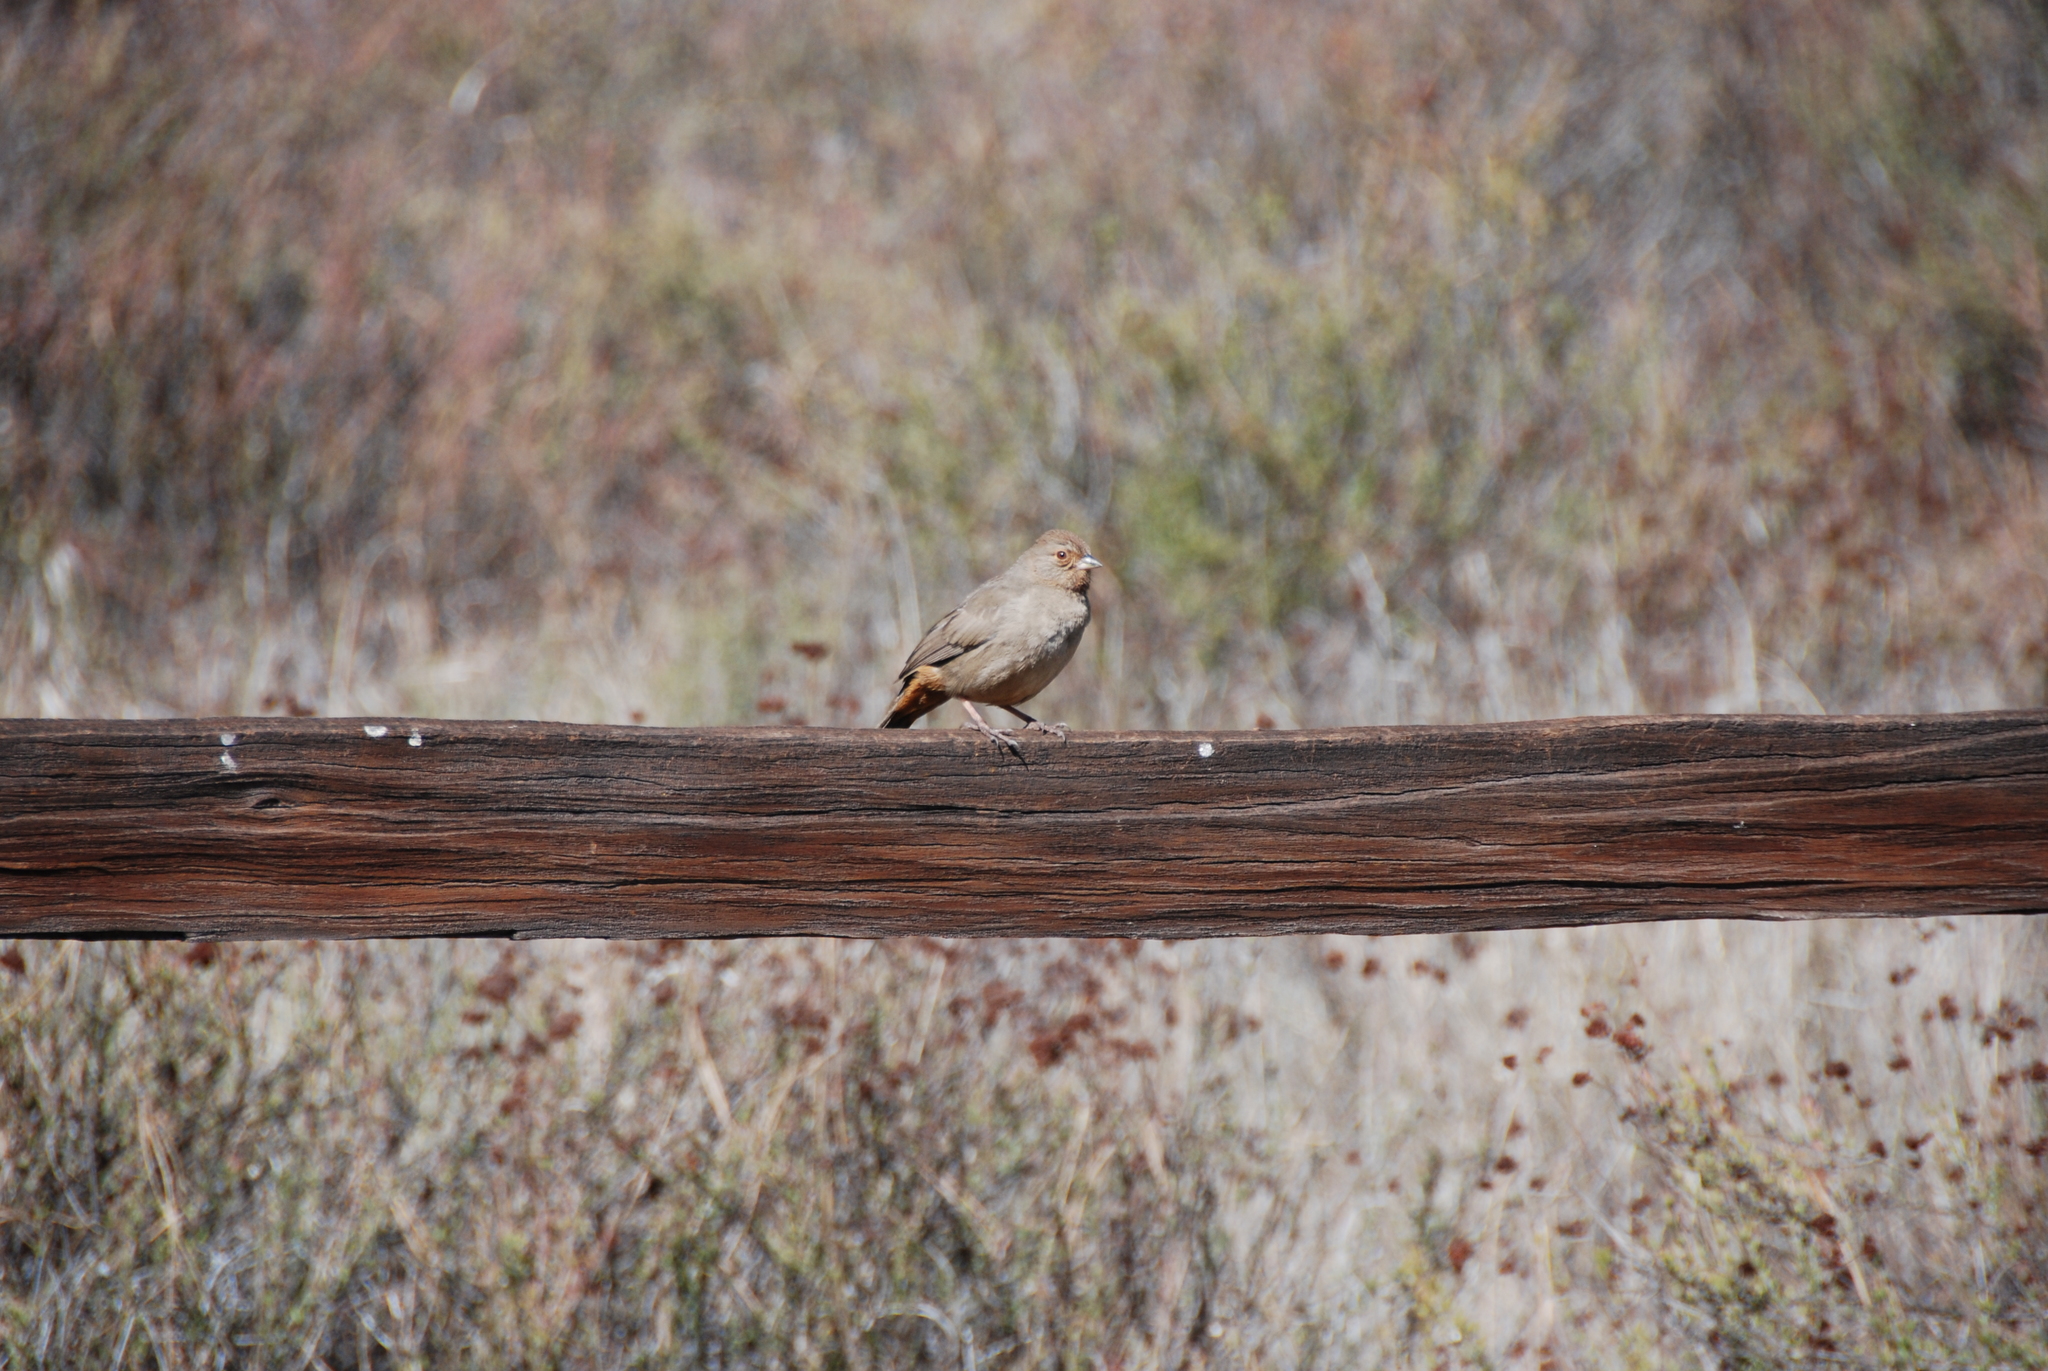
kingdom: Animalia
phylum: Chordata
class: Aves
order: Passeriformes
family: Passerellidae
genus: Melozone
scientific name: Melozone crissalis
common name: California towhee
